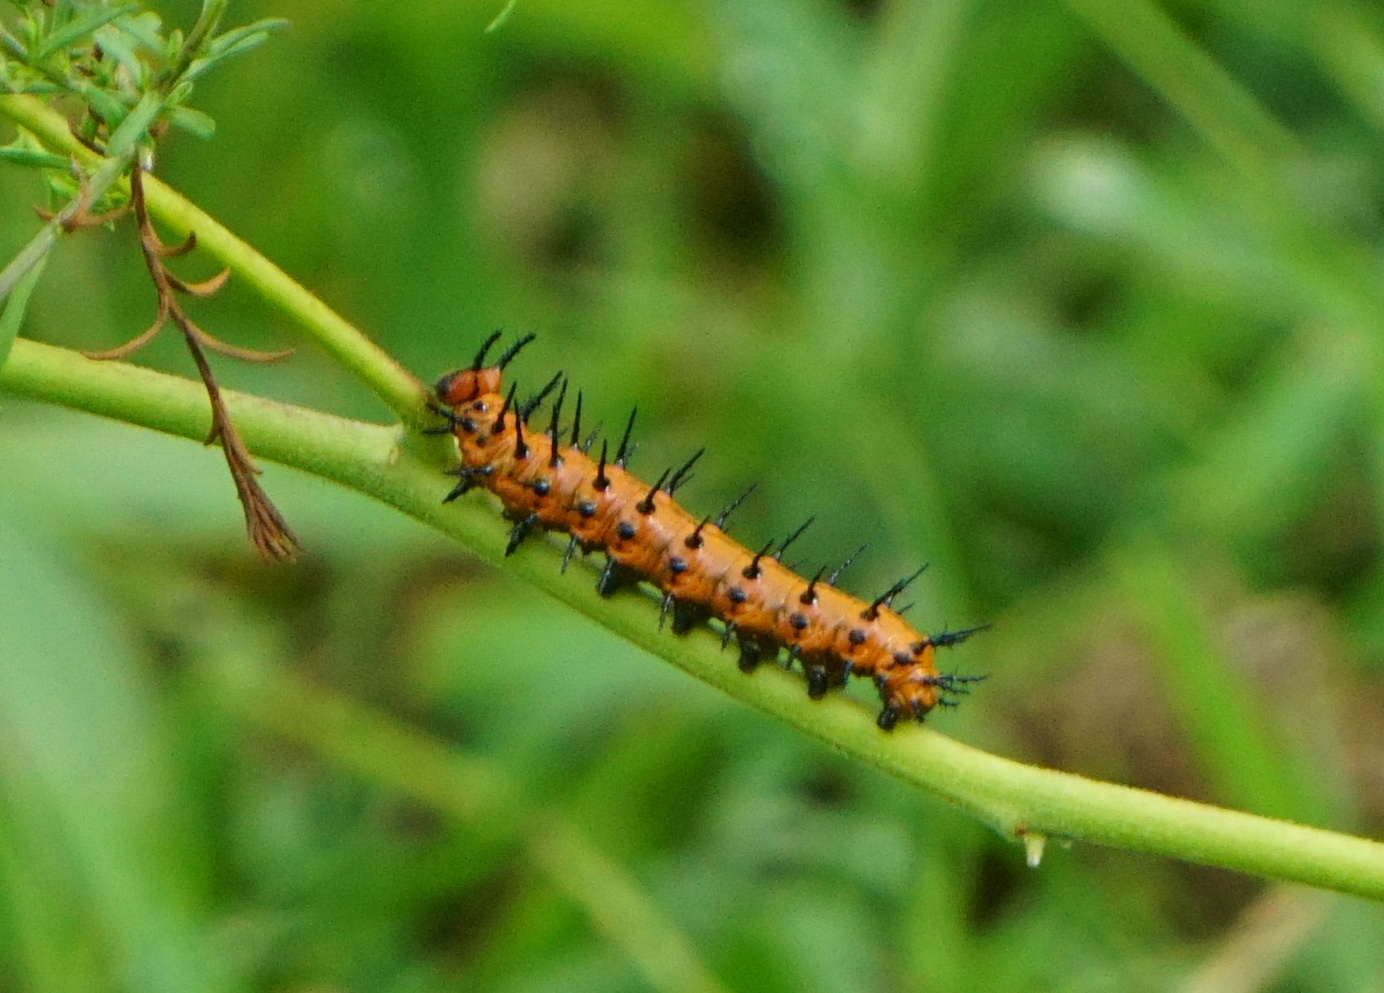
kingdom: Animalia
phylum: Arthropoda
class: Insecta
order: Lepidoptera
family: Nymphalidae
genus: Dione
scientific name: Dione vanillae
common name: Gulf fritillary
